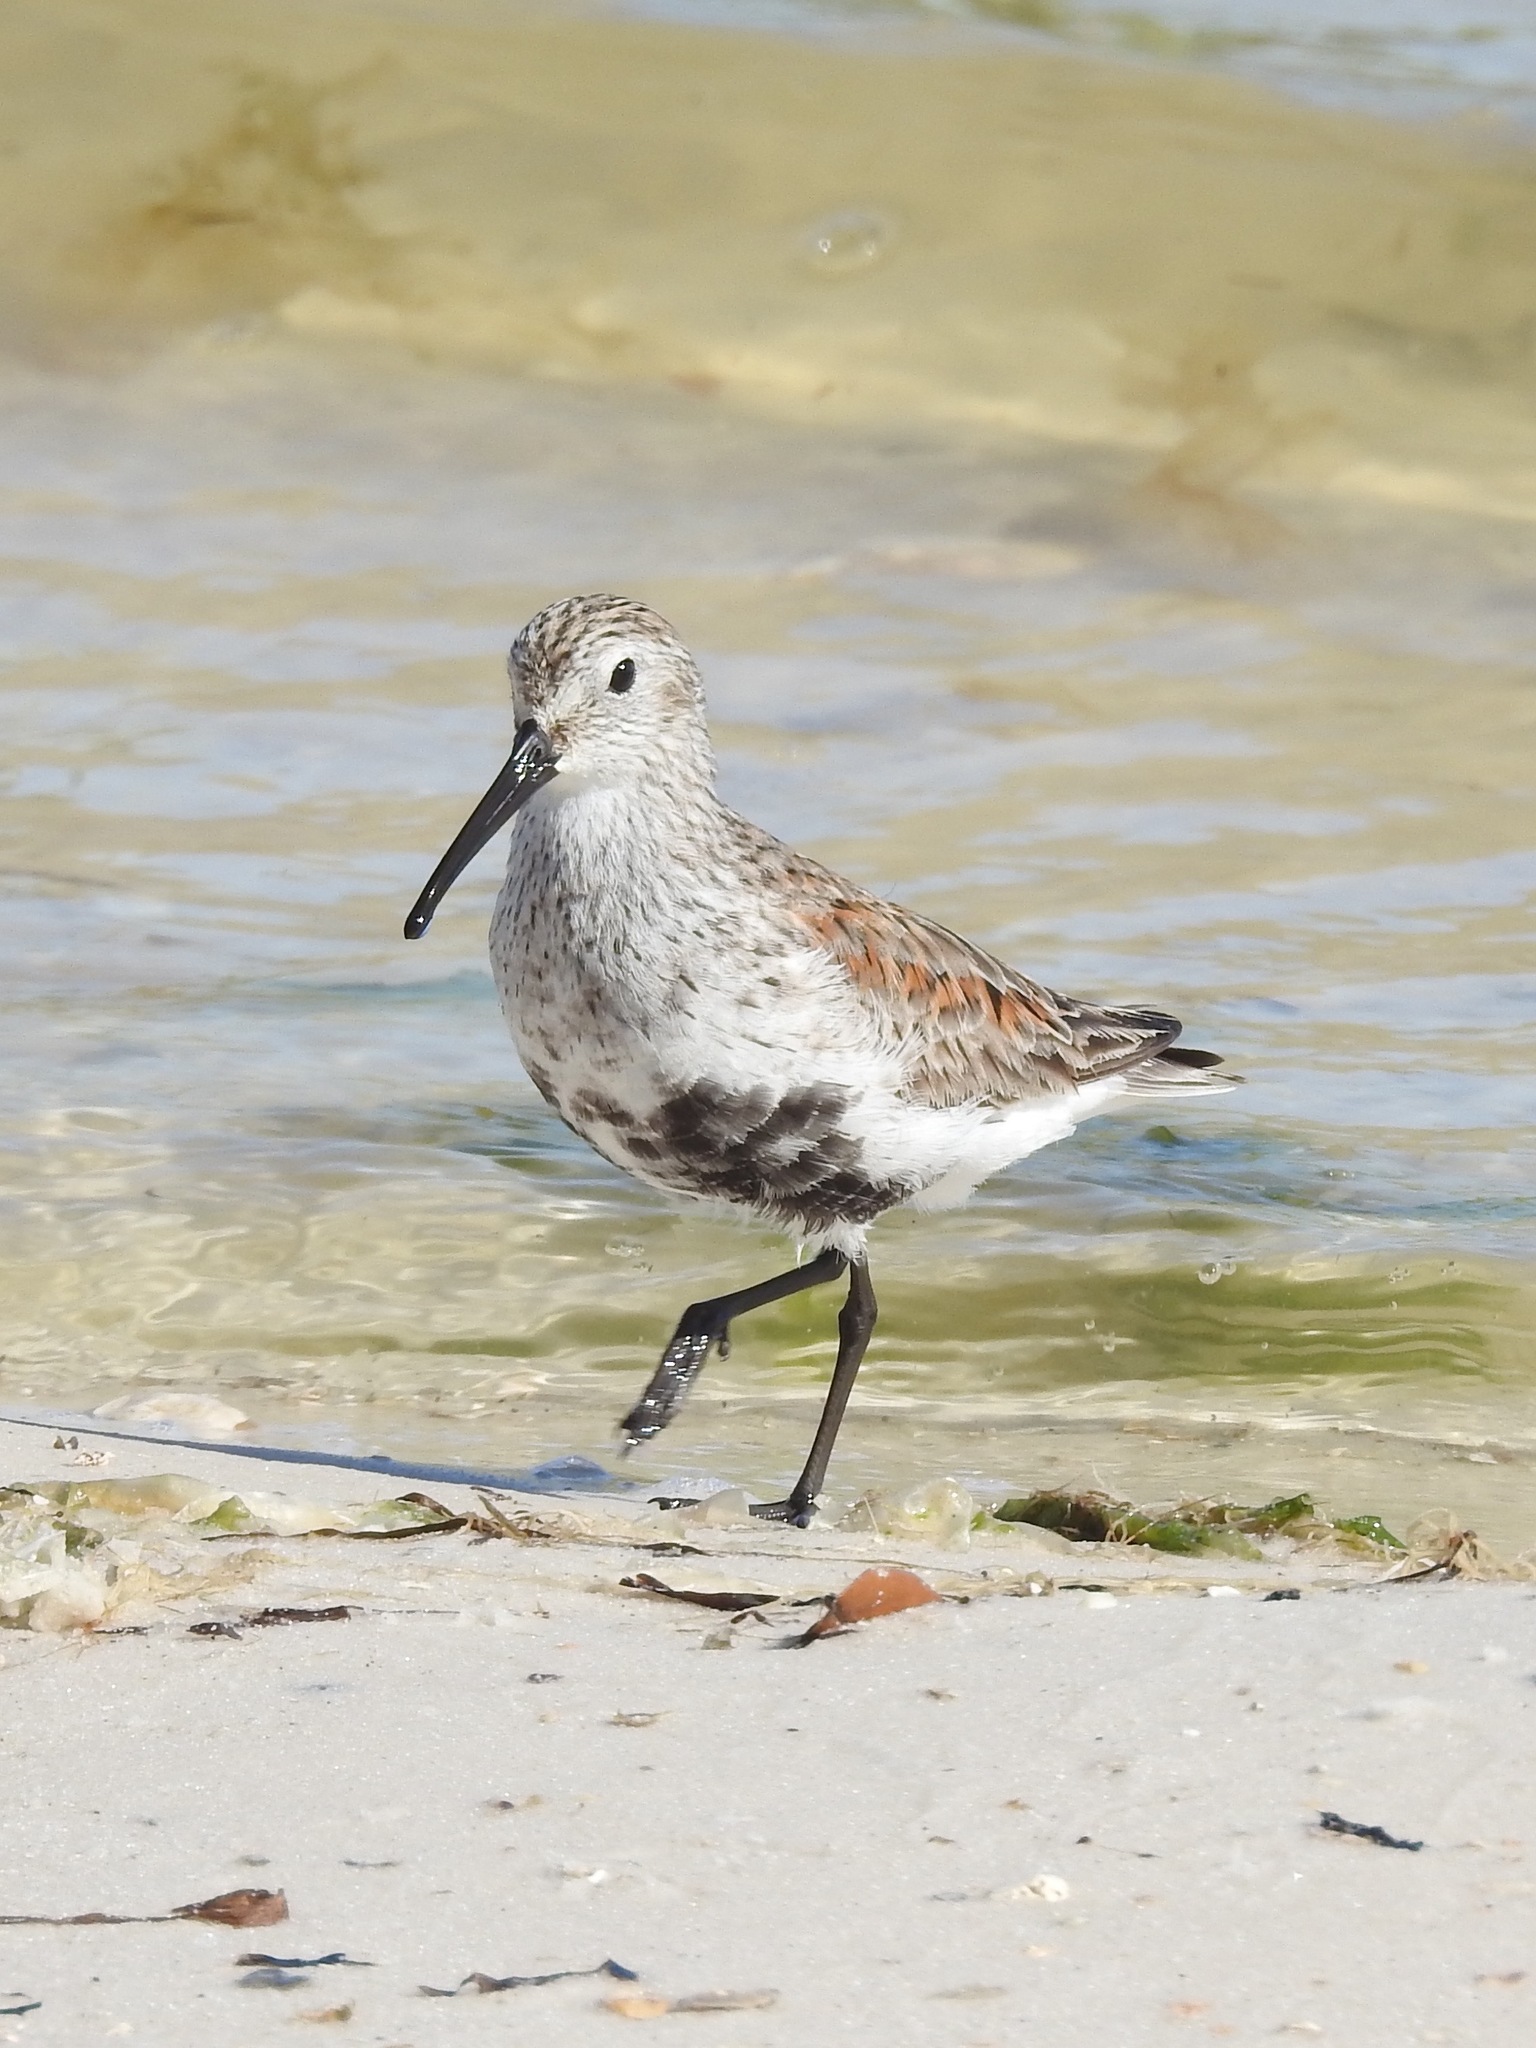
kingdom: Animalia
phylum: Chordata
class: Aves
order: Charadriiformes
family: Scolopacidae
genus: Calidris
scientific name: Calidris alpina
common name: Dunlin
